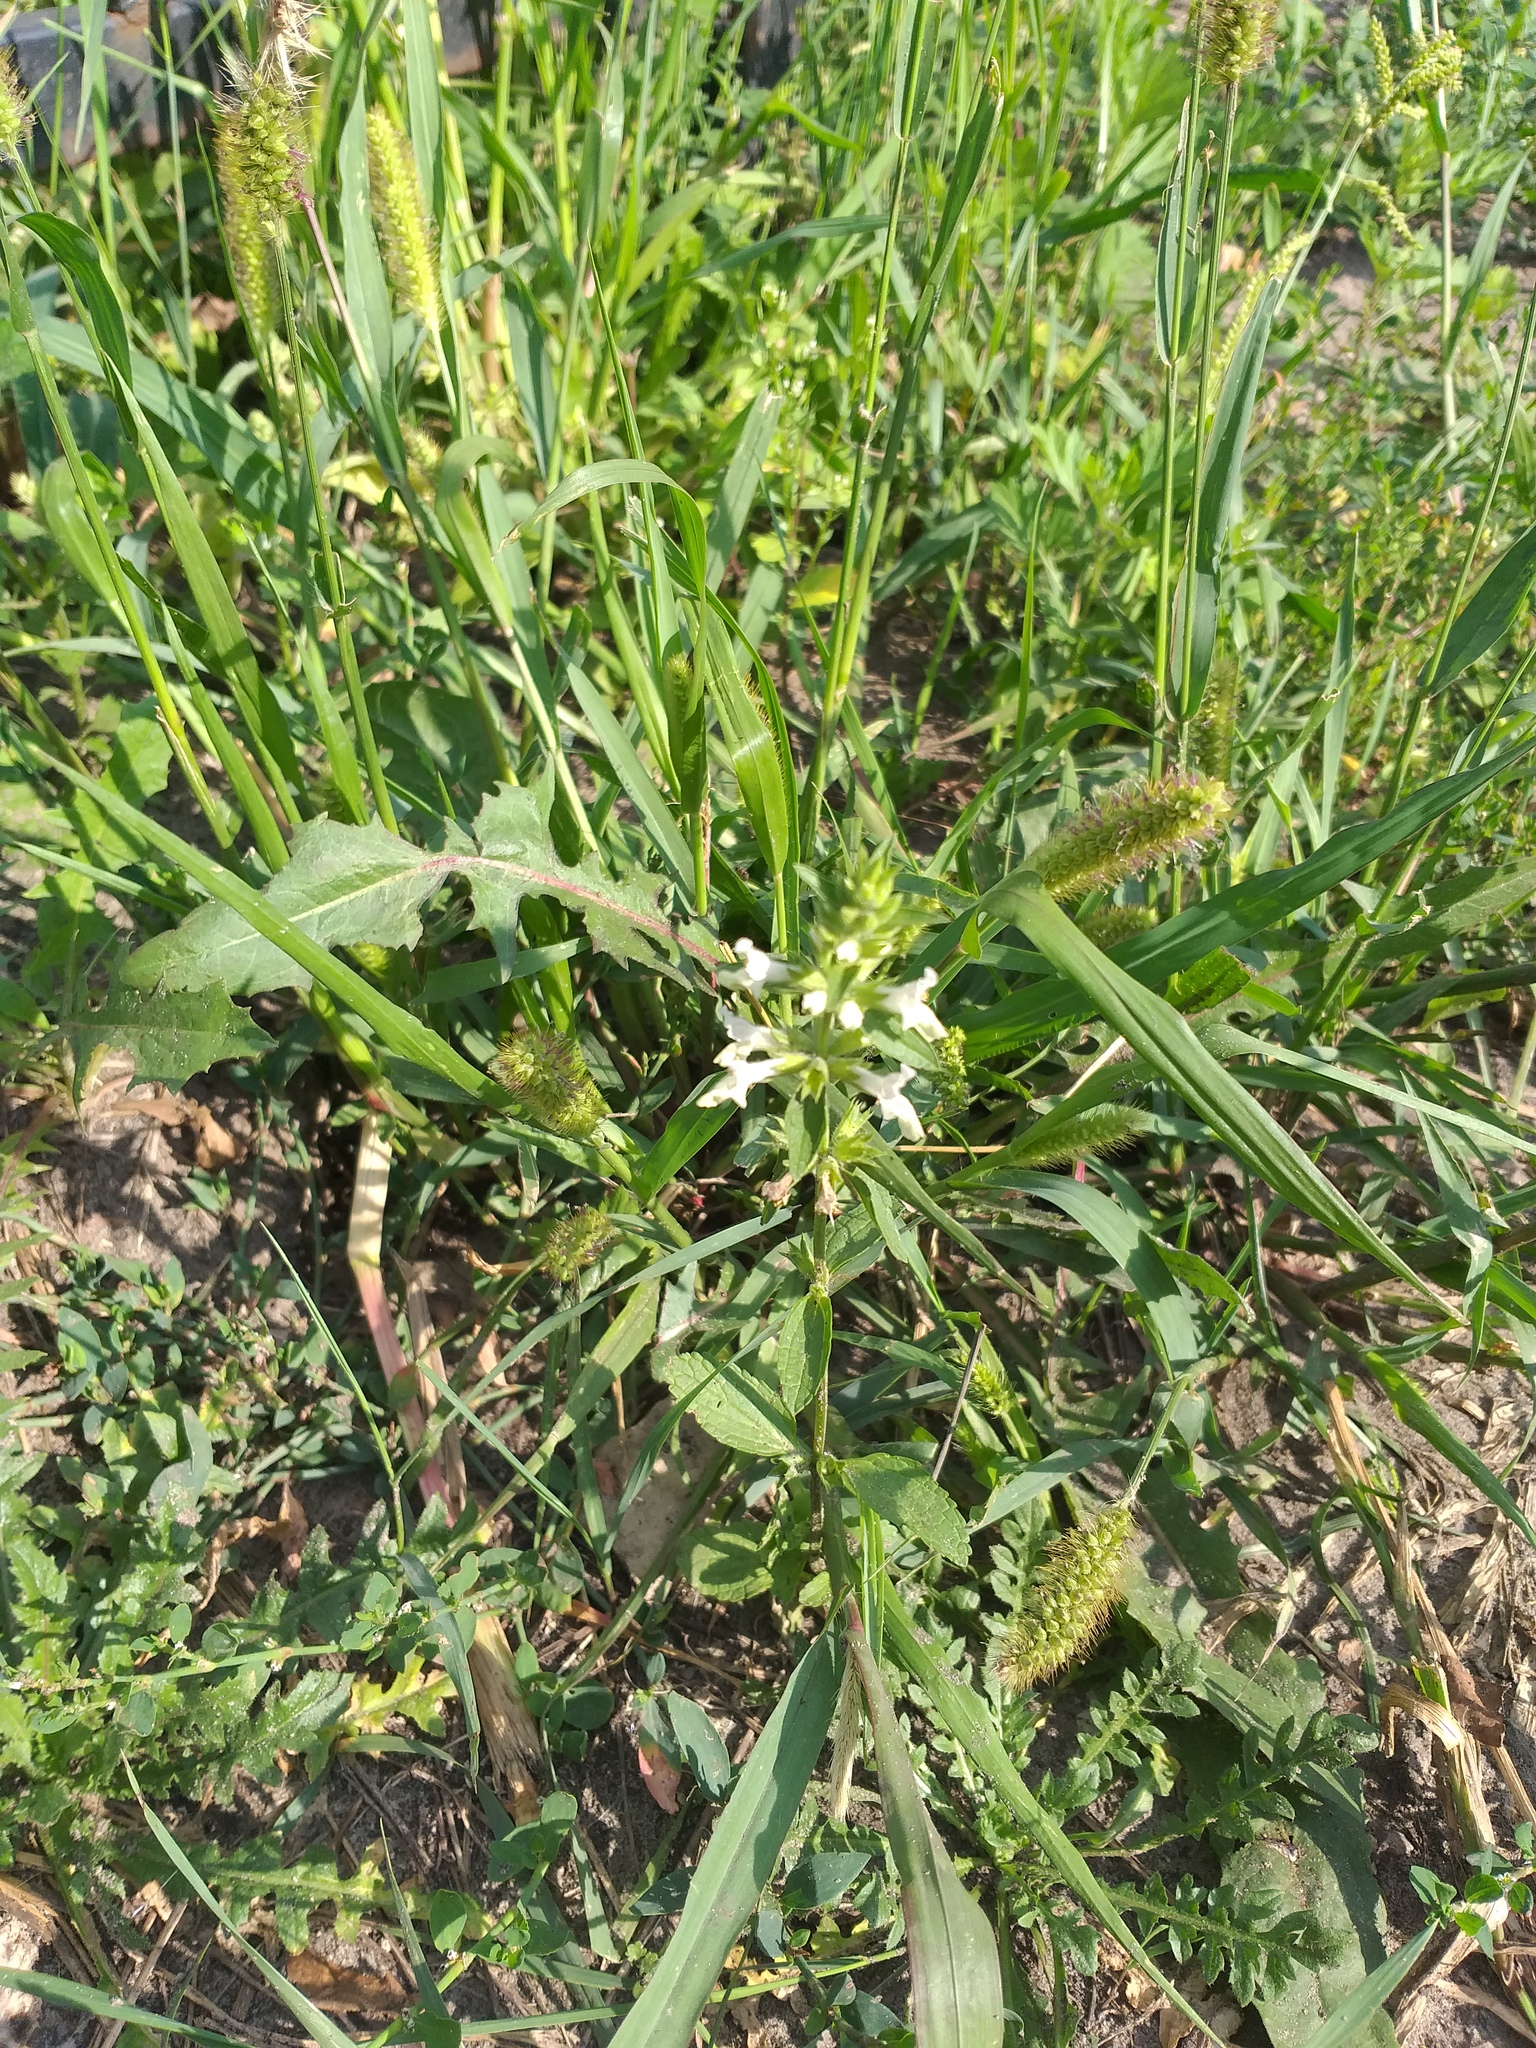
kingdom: Plantae
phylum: Tracheophyta
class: Magnoliopsida
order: Lamiales
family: Lamiaceae
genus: Stachys
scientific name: Stachys annua
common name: Annual yellow-woundwort
